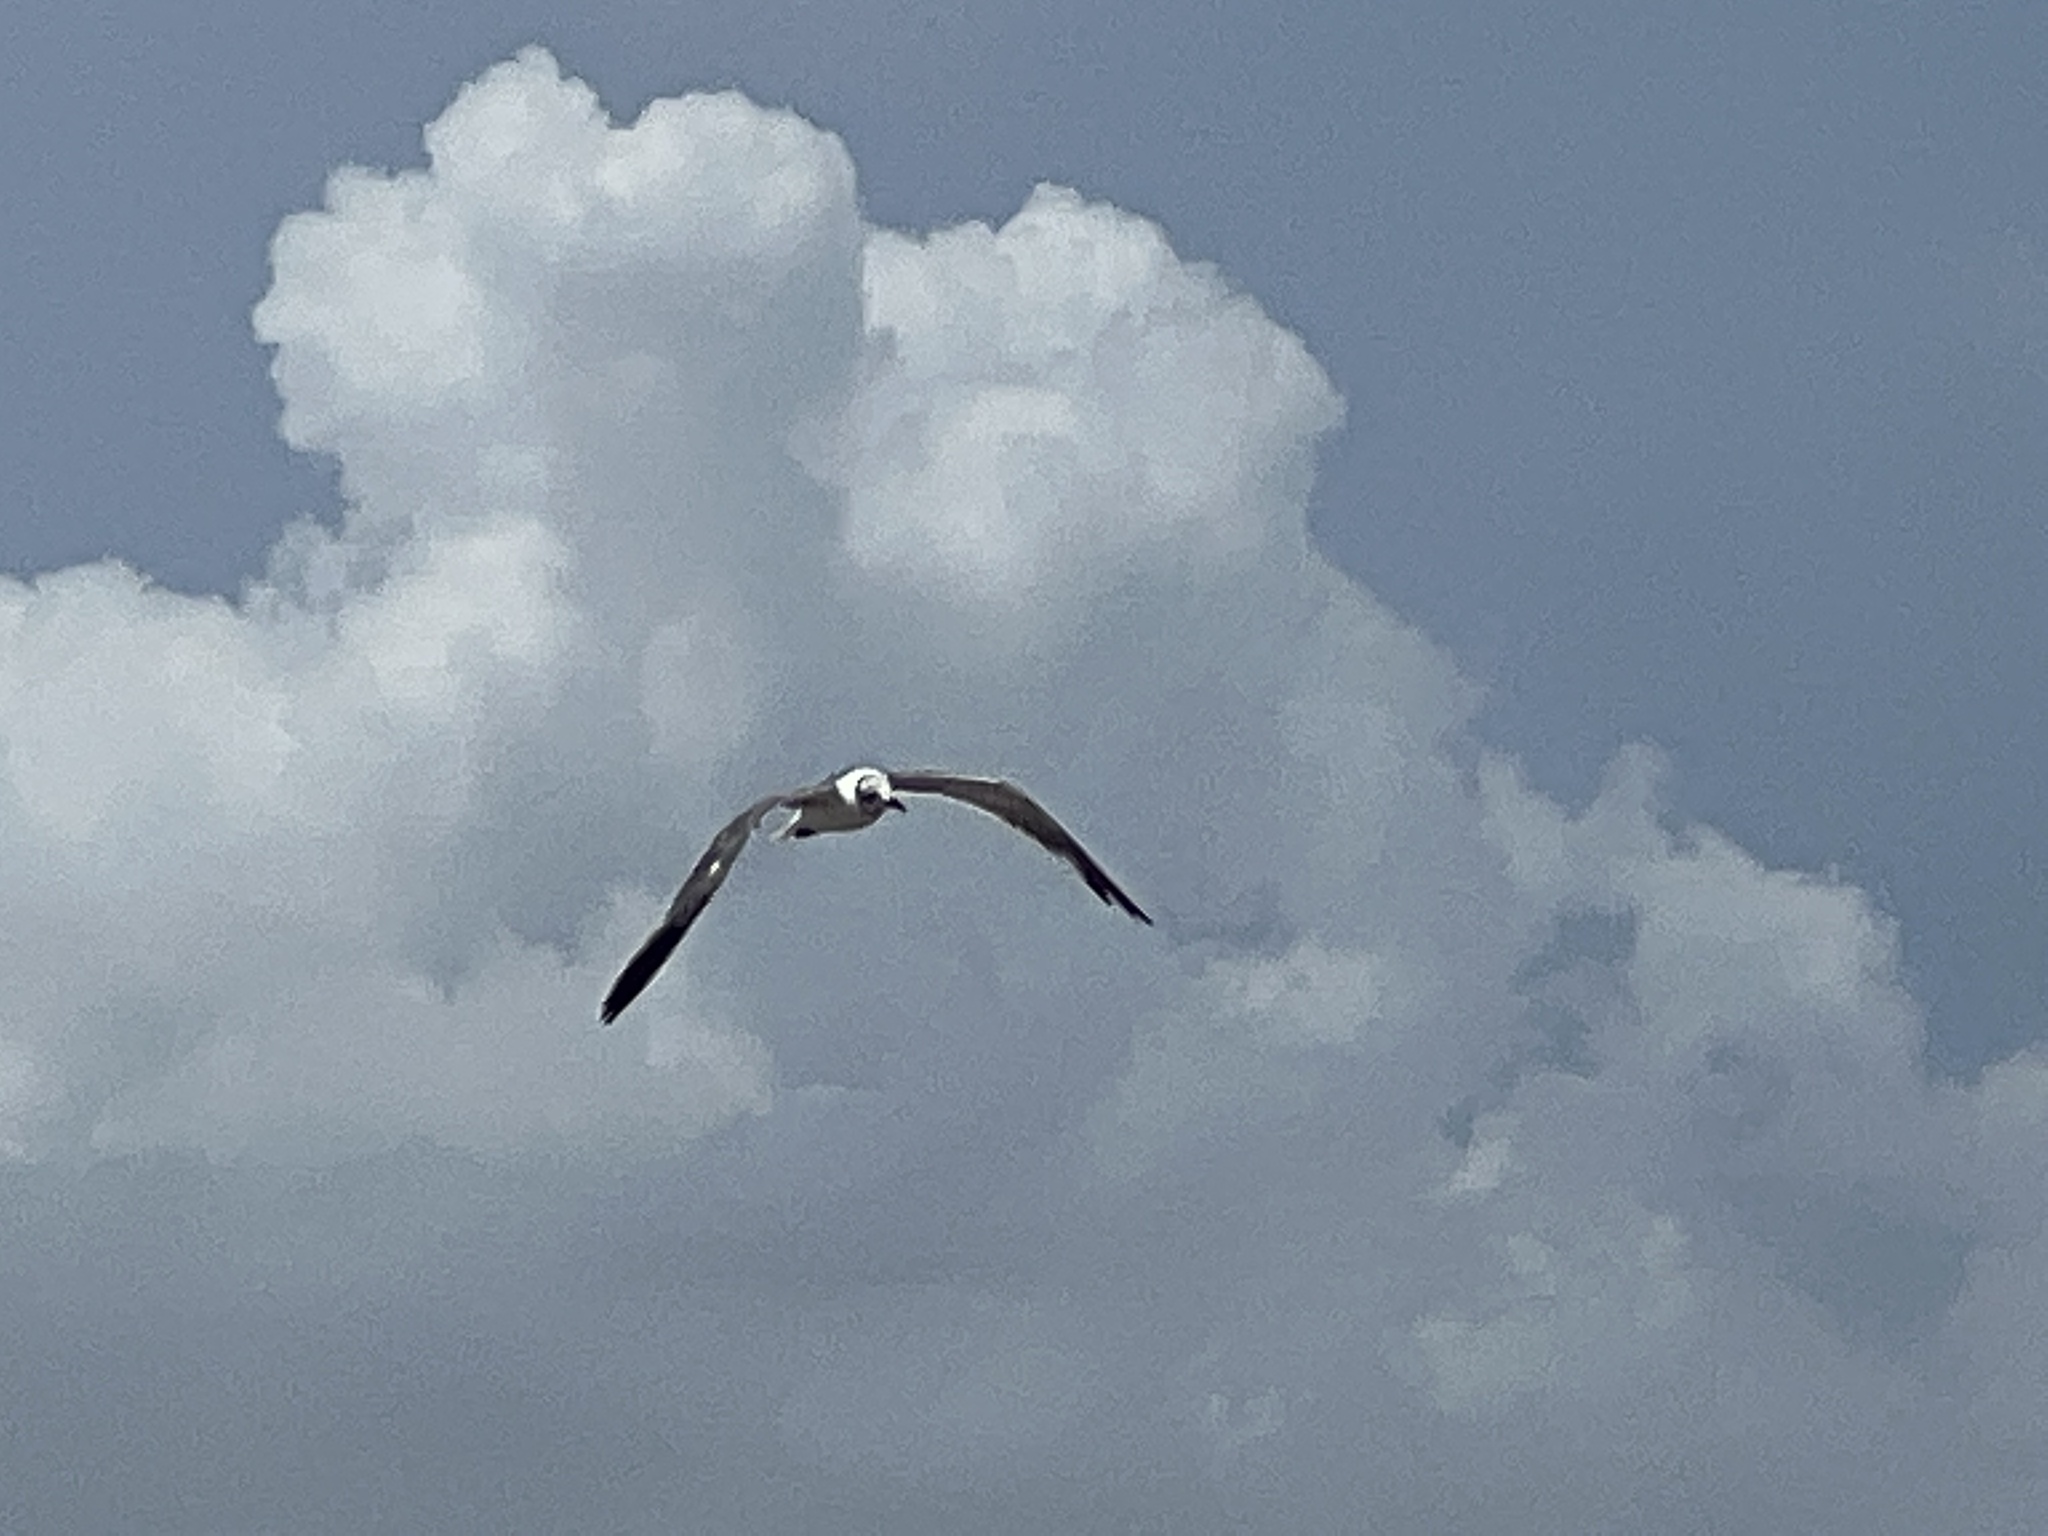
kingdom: Animalia
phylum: Chordata
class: Aves
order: Charadriiformes
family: Laridae
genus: Leucophaeus
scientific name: Leucophaeus atricilla
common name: Laughing gull
